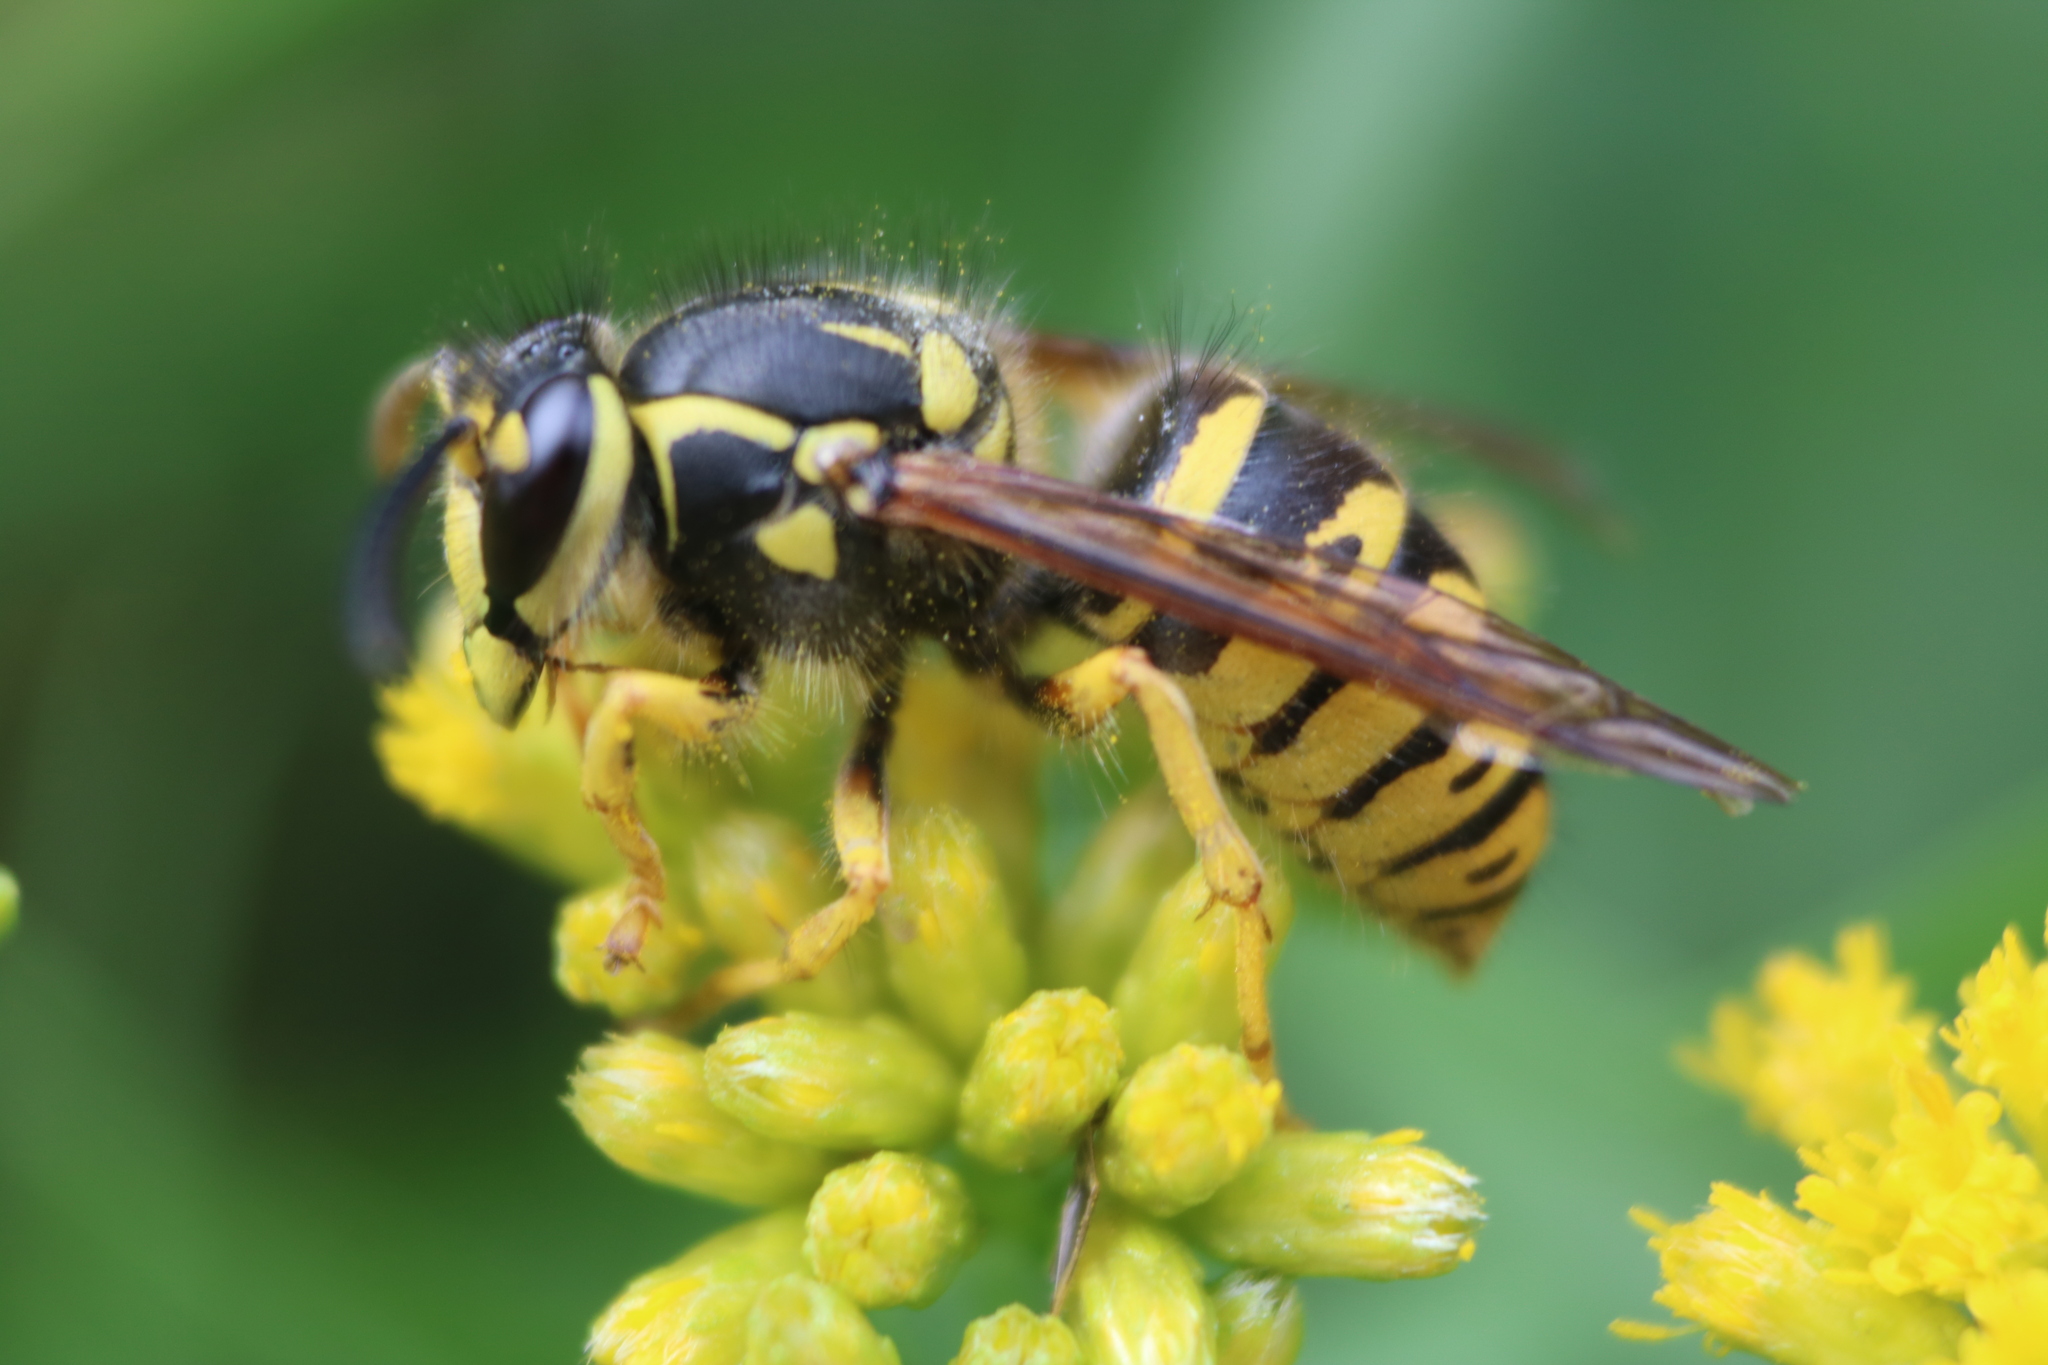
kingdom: Animalia
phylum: Arthropoda
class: Insecta
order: Hymenoptera
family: Vespidae
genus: Dolichovespula
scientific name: Dolichovespula arenaria
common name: Aerial yellowjacket
